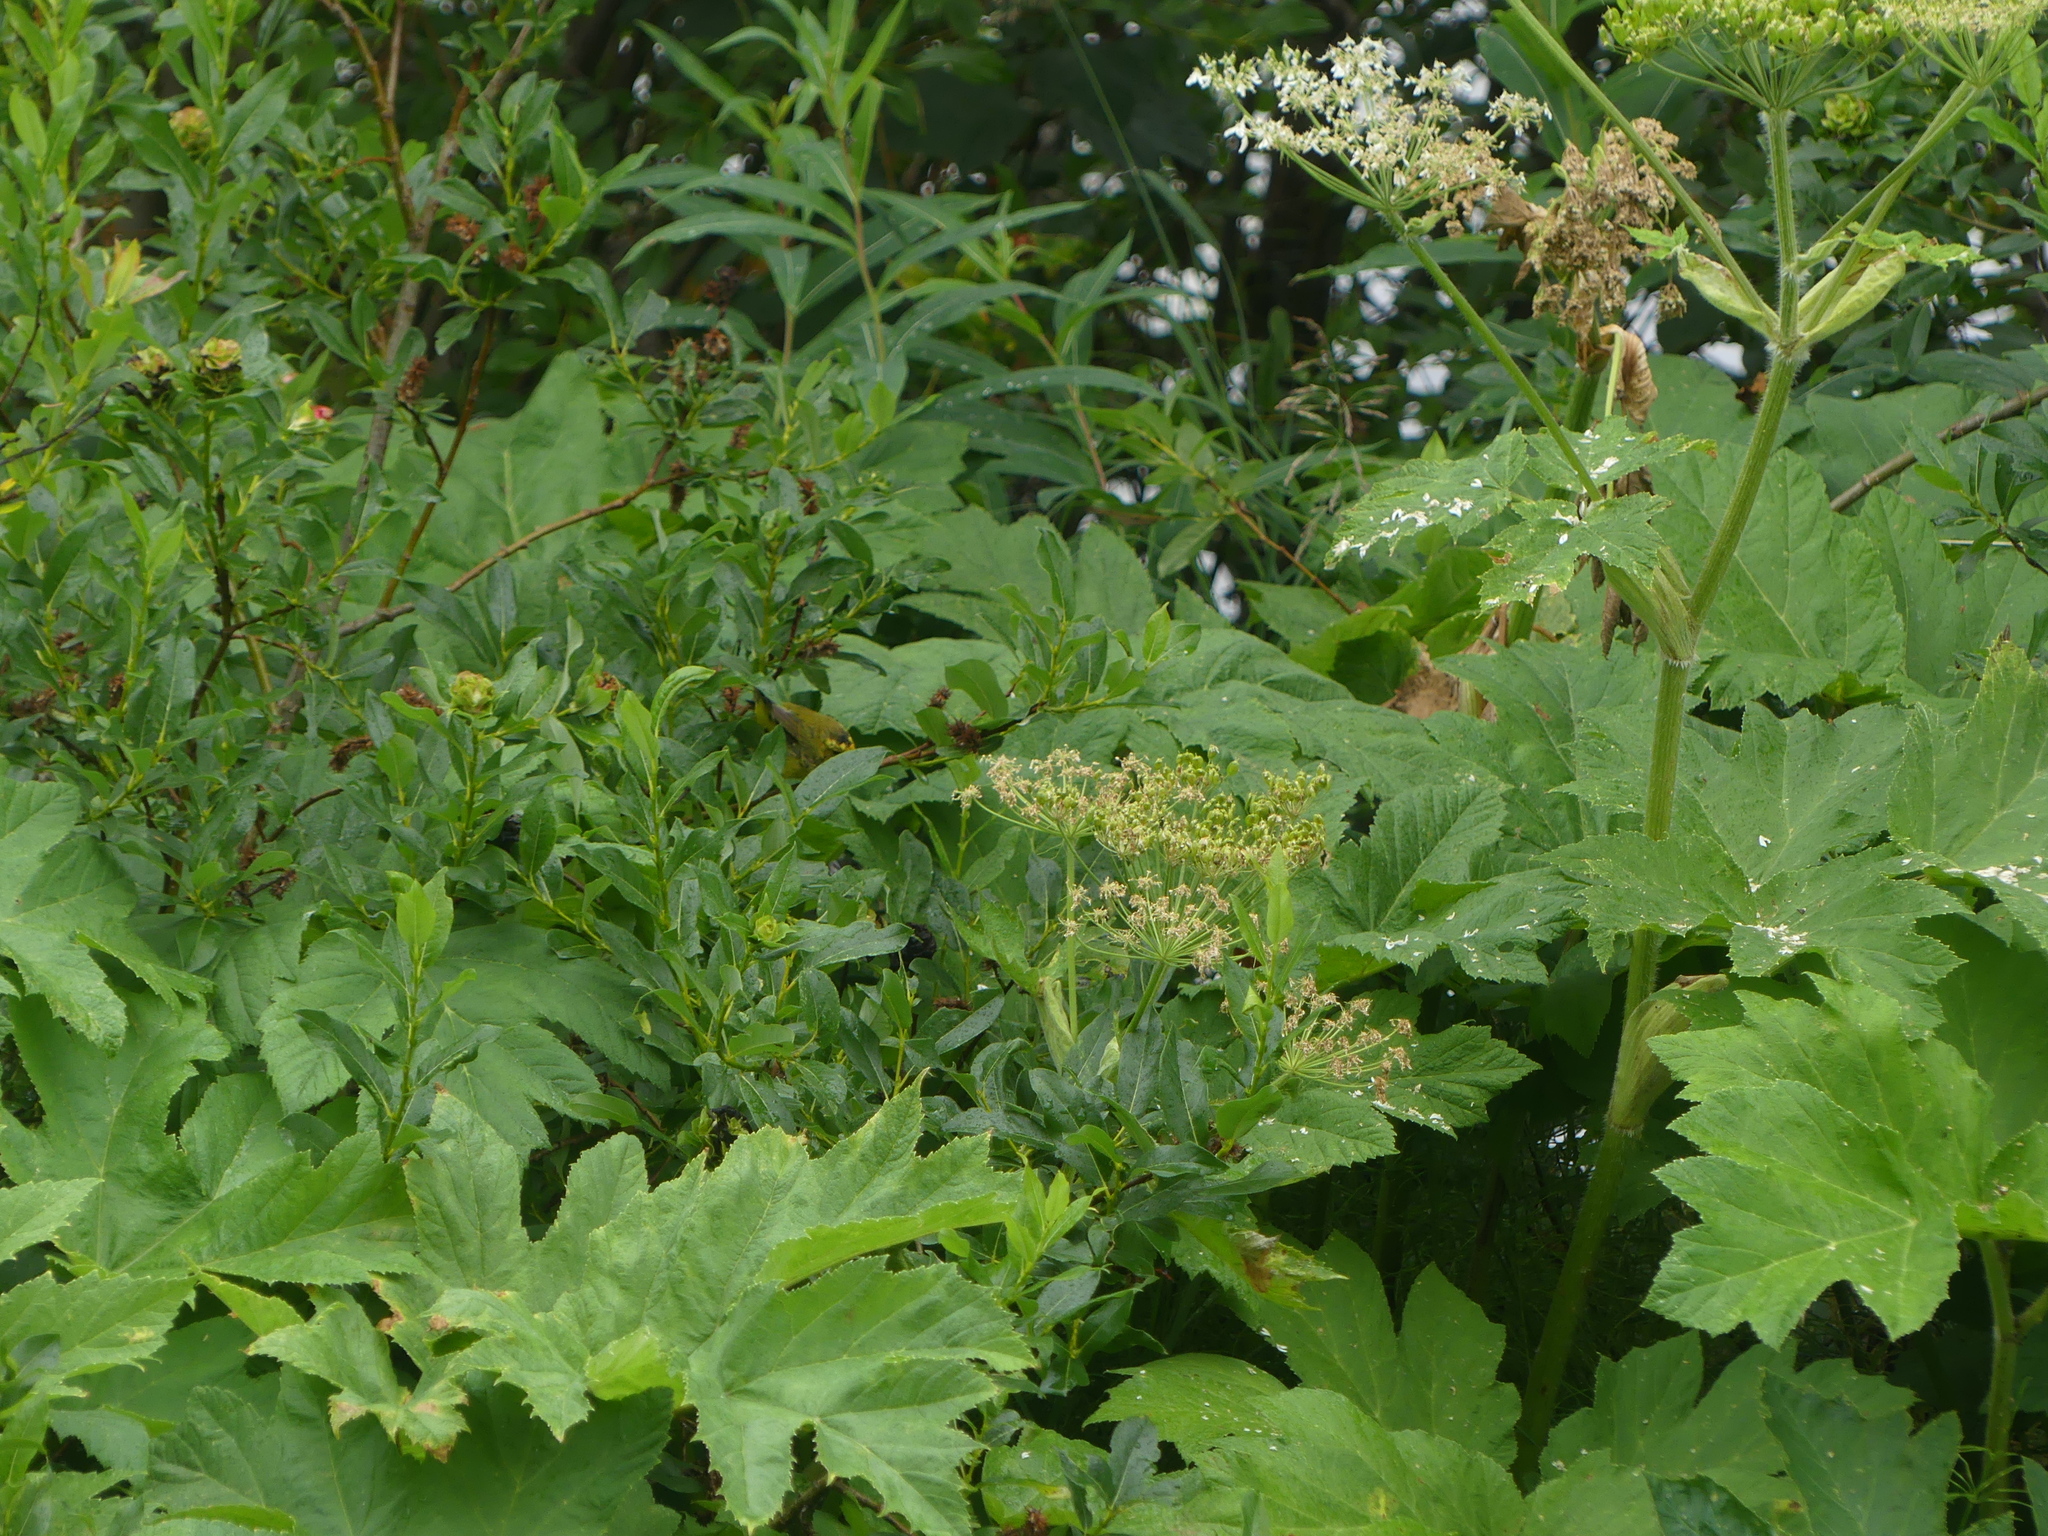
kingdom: Animalia
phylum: Chordata
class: Aves
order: Passeriformes
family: Parulidae
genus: Cardellina
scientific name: Cardellina pusilla
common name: Wilson's warbler
